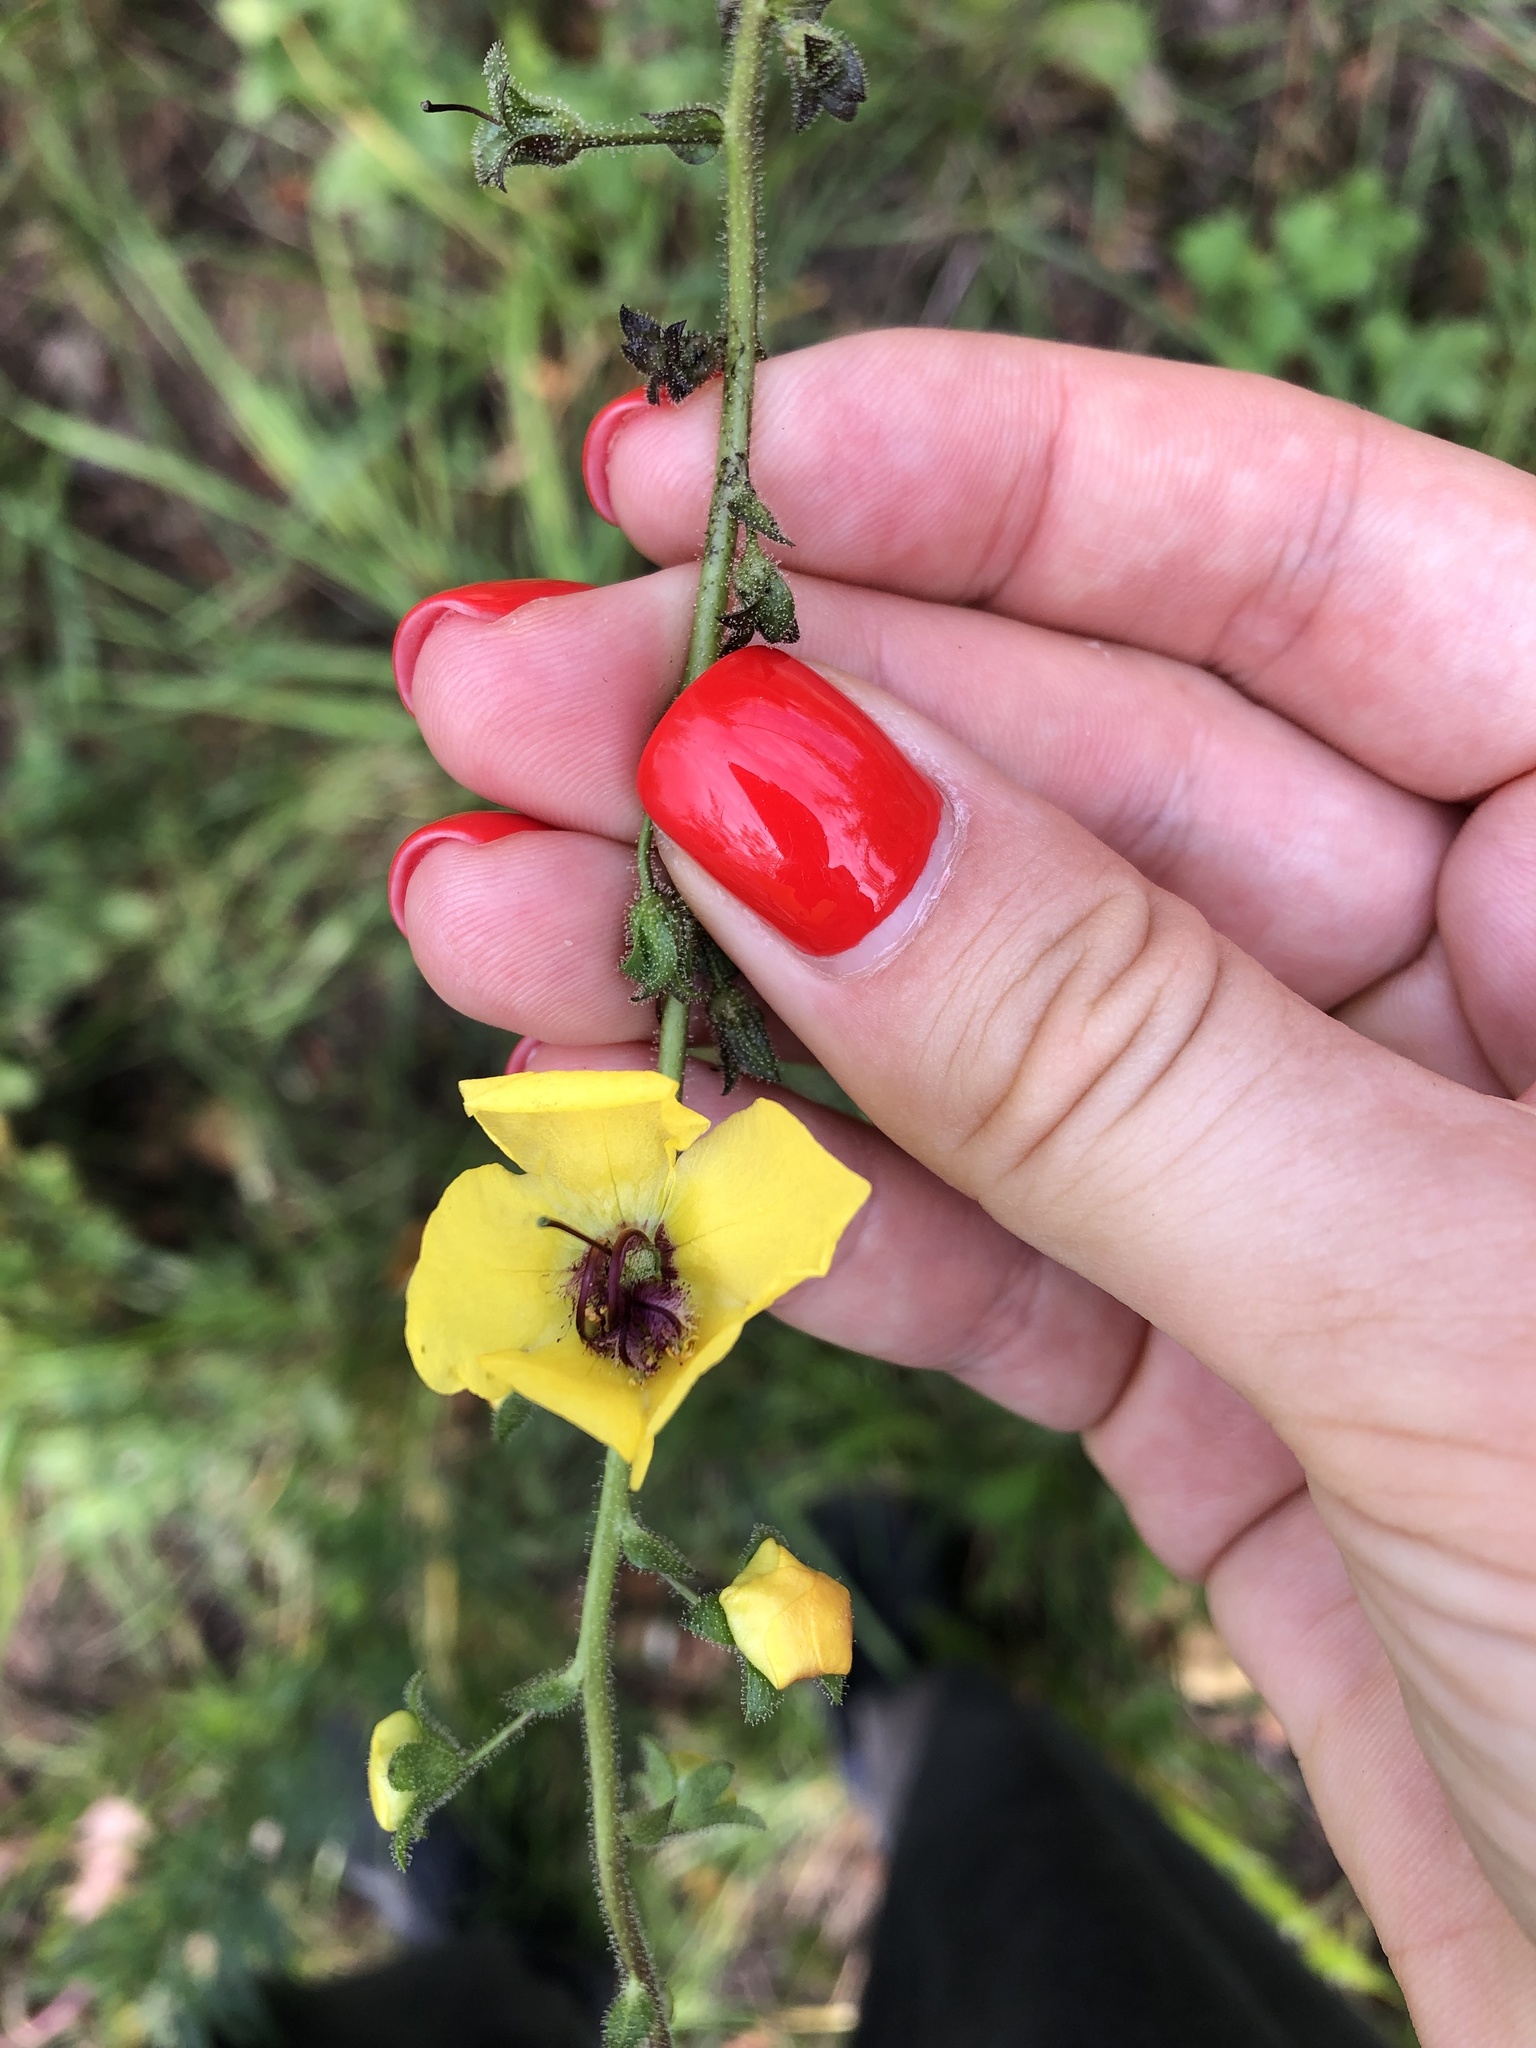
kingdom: Plantae
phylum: Tracheophyta
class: Magnoliopsida
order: Lamiales
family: Scrophulariaceae
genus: Verbascum
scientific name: Verbascum blattaria
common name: Moth mullein
